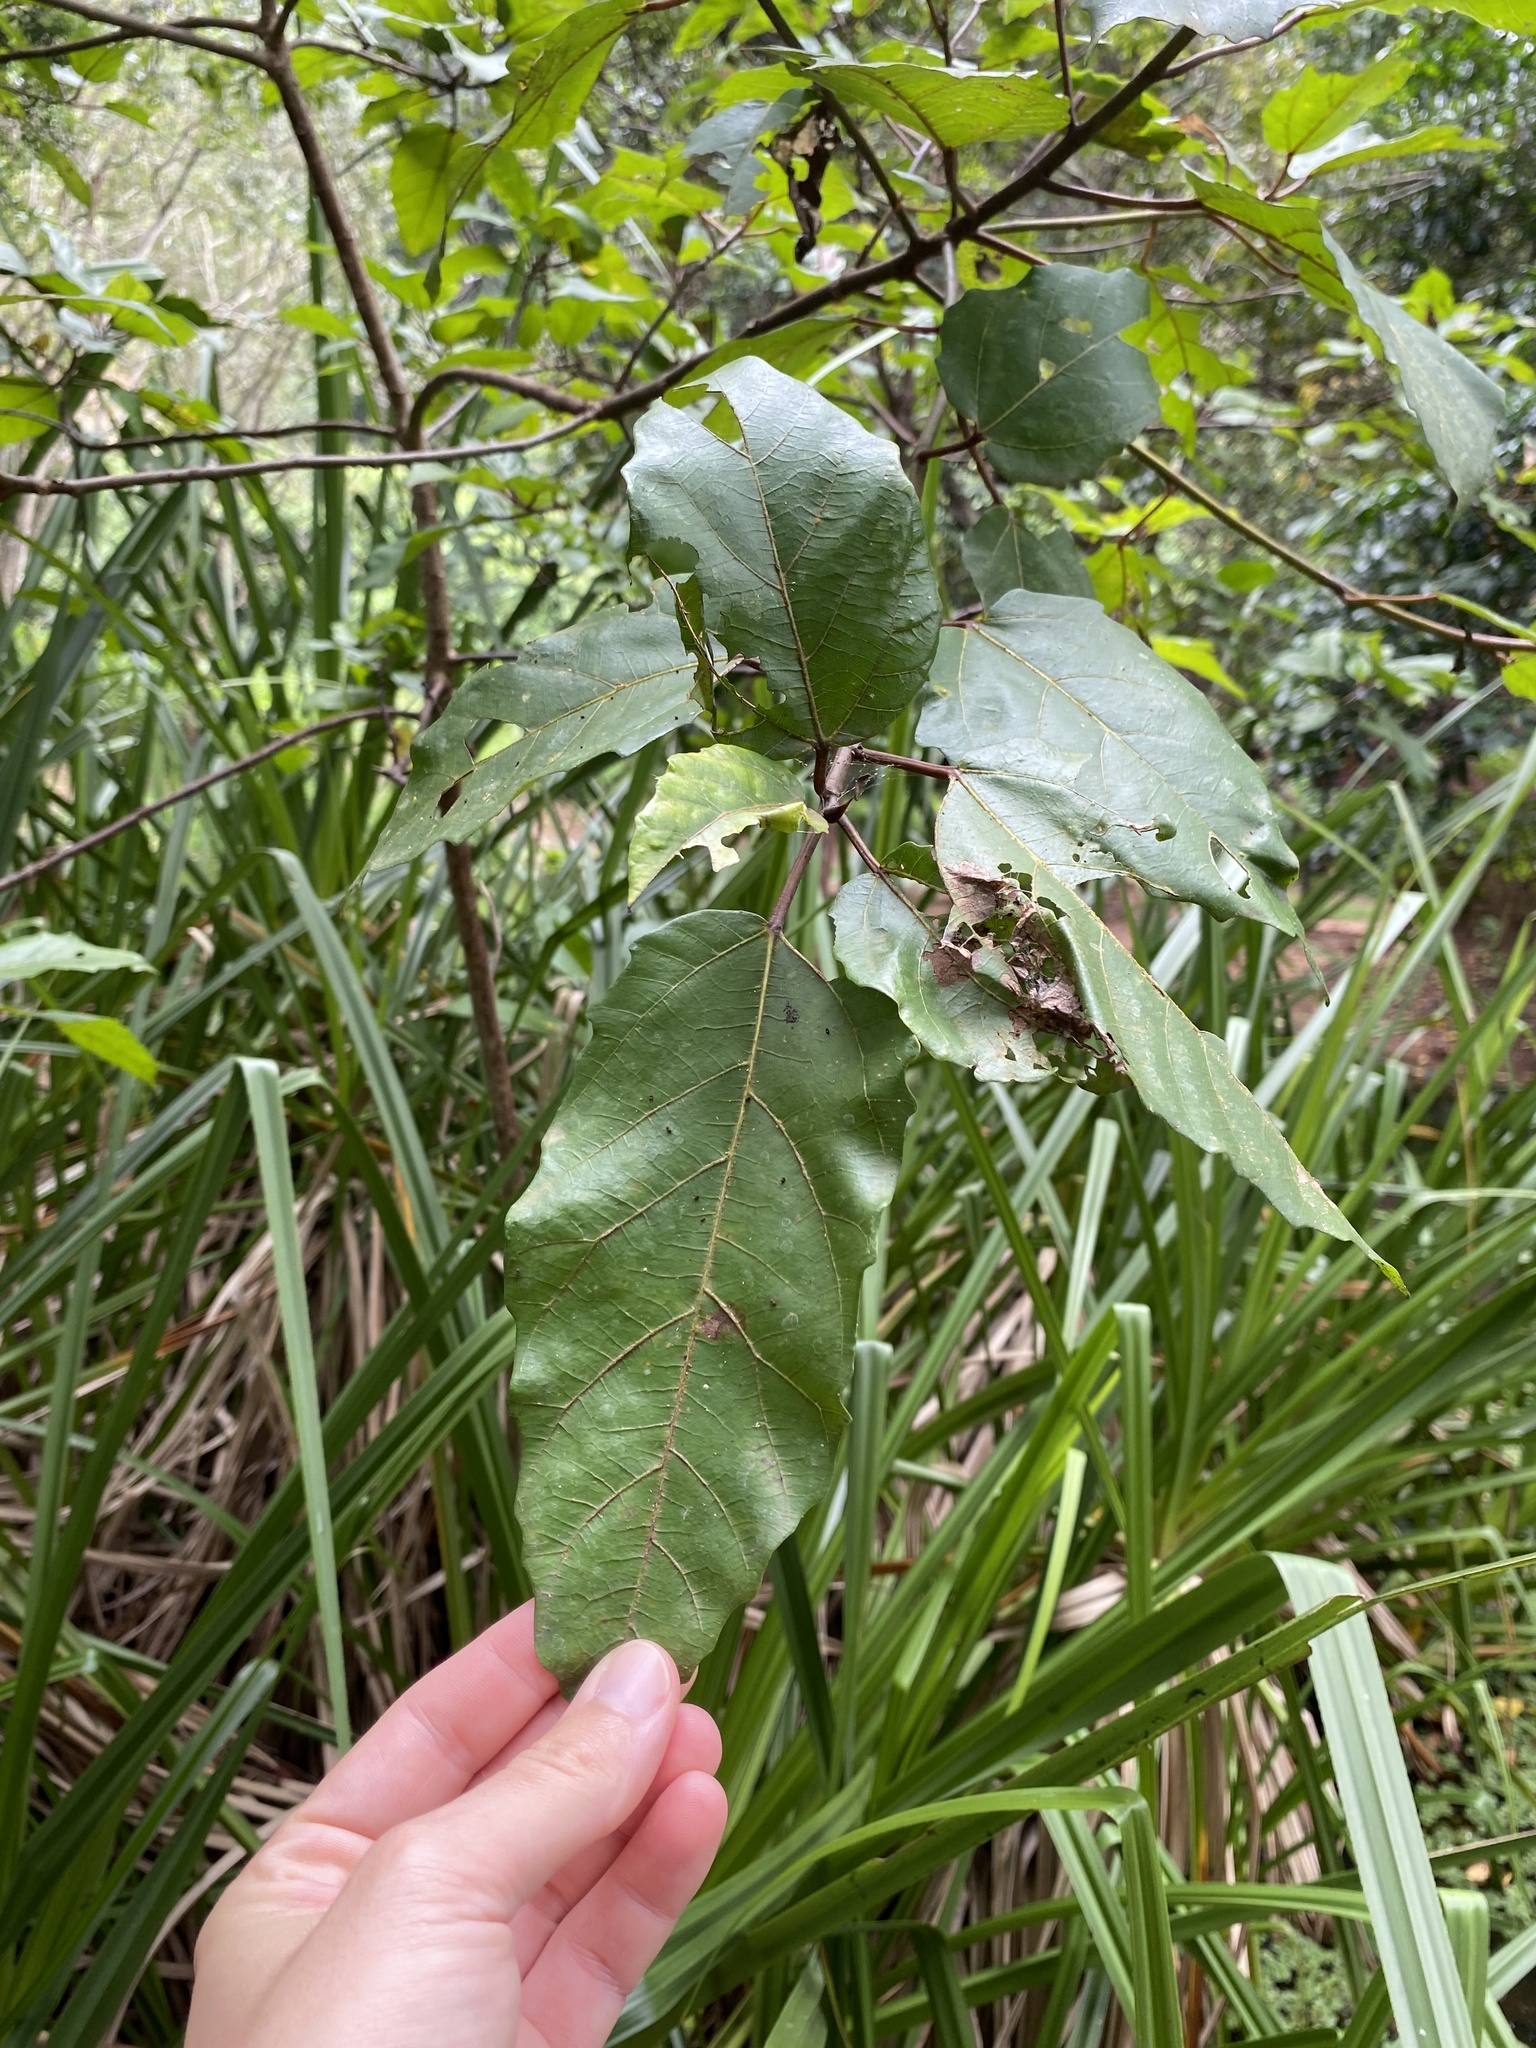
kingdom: Plantae
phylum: Tracheophyta
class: Magnoliopsida
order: Rosales
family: Moraceae
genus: Ficus
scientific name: Ficus sur
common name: Cape fig
